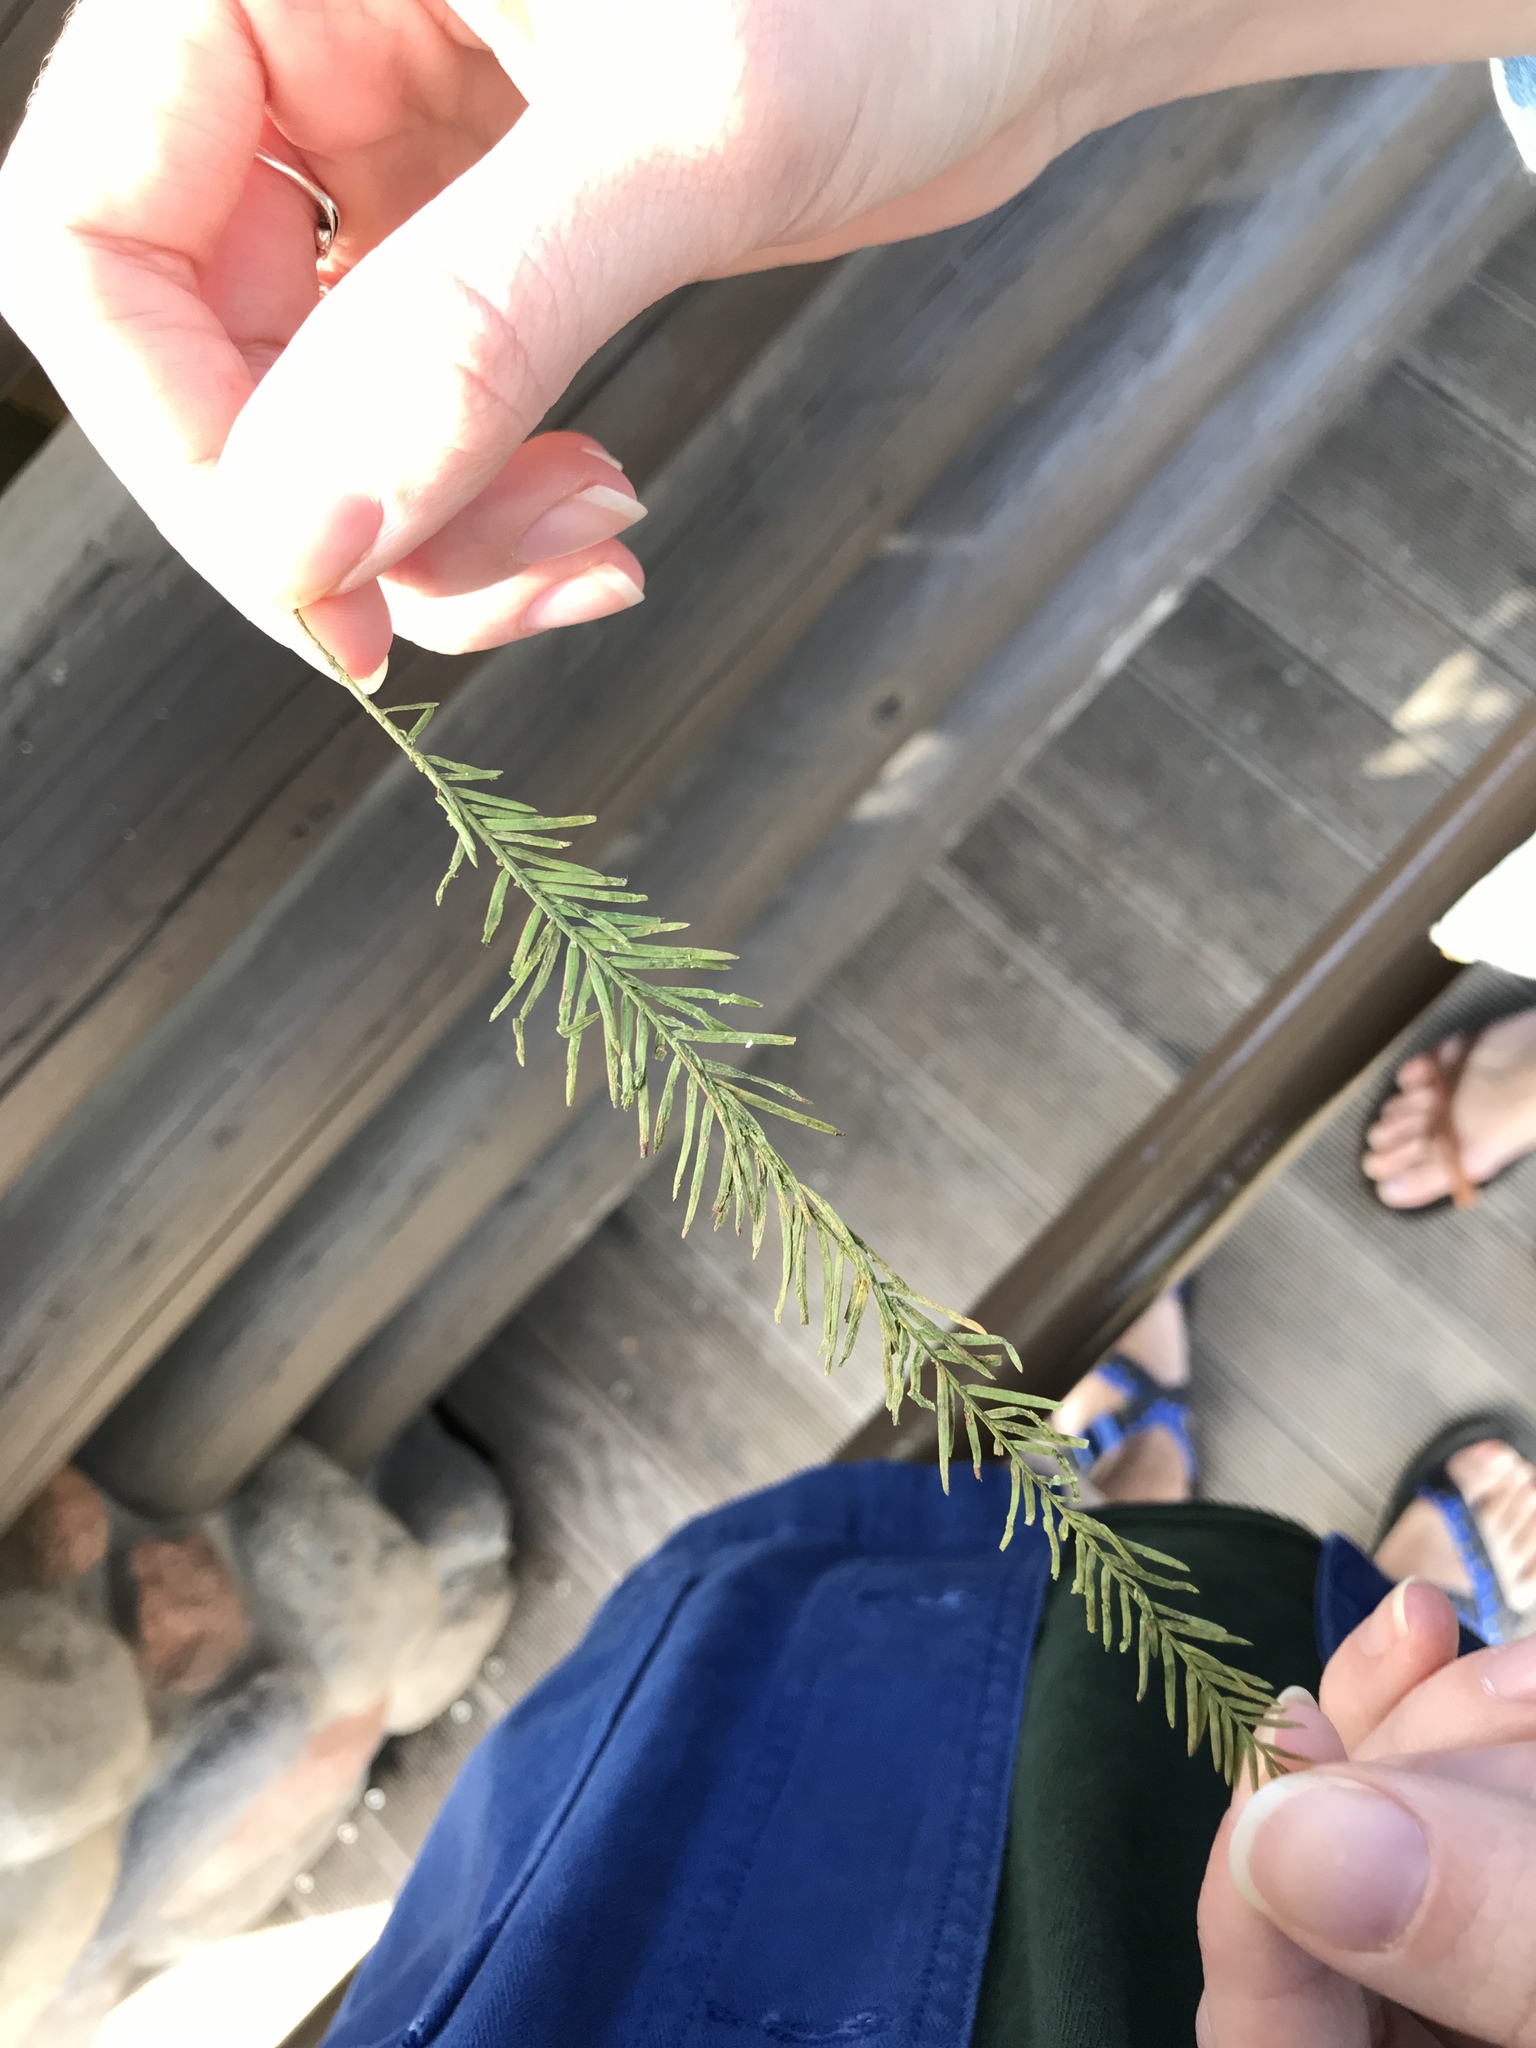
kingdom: Plantae
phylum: Tracheophyta
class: Pinopsida
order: Pinales
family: Cupressaceae
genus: Taxodium
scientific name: Taxodium distichum
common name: Bald cypress
